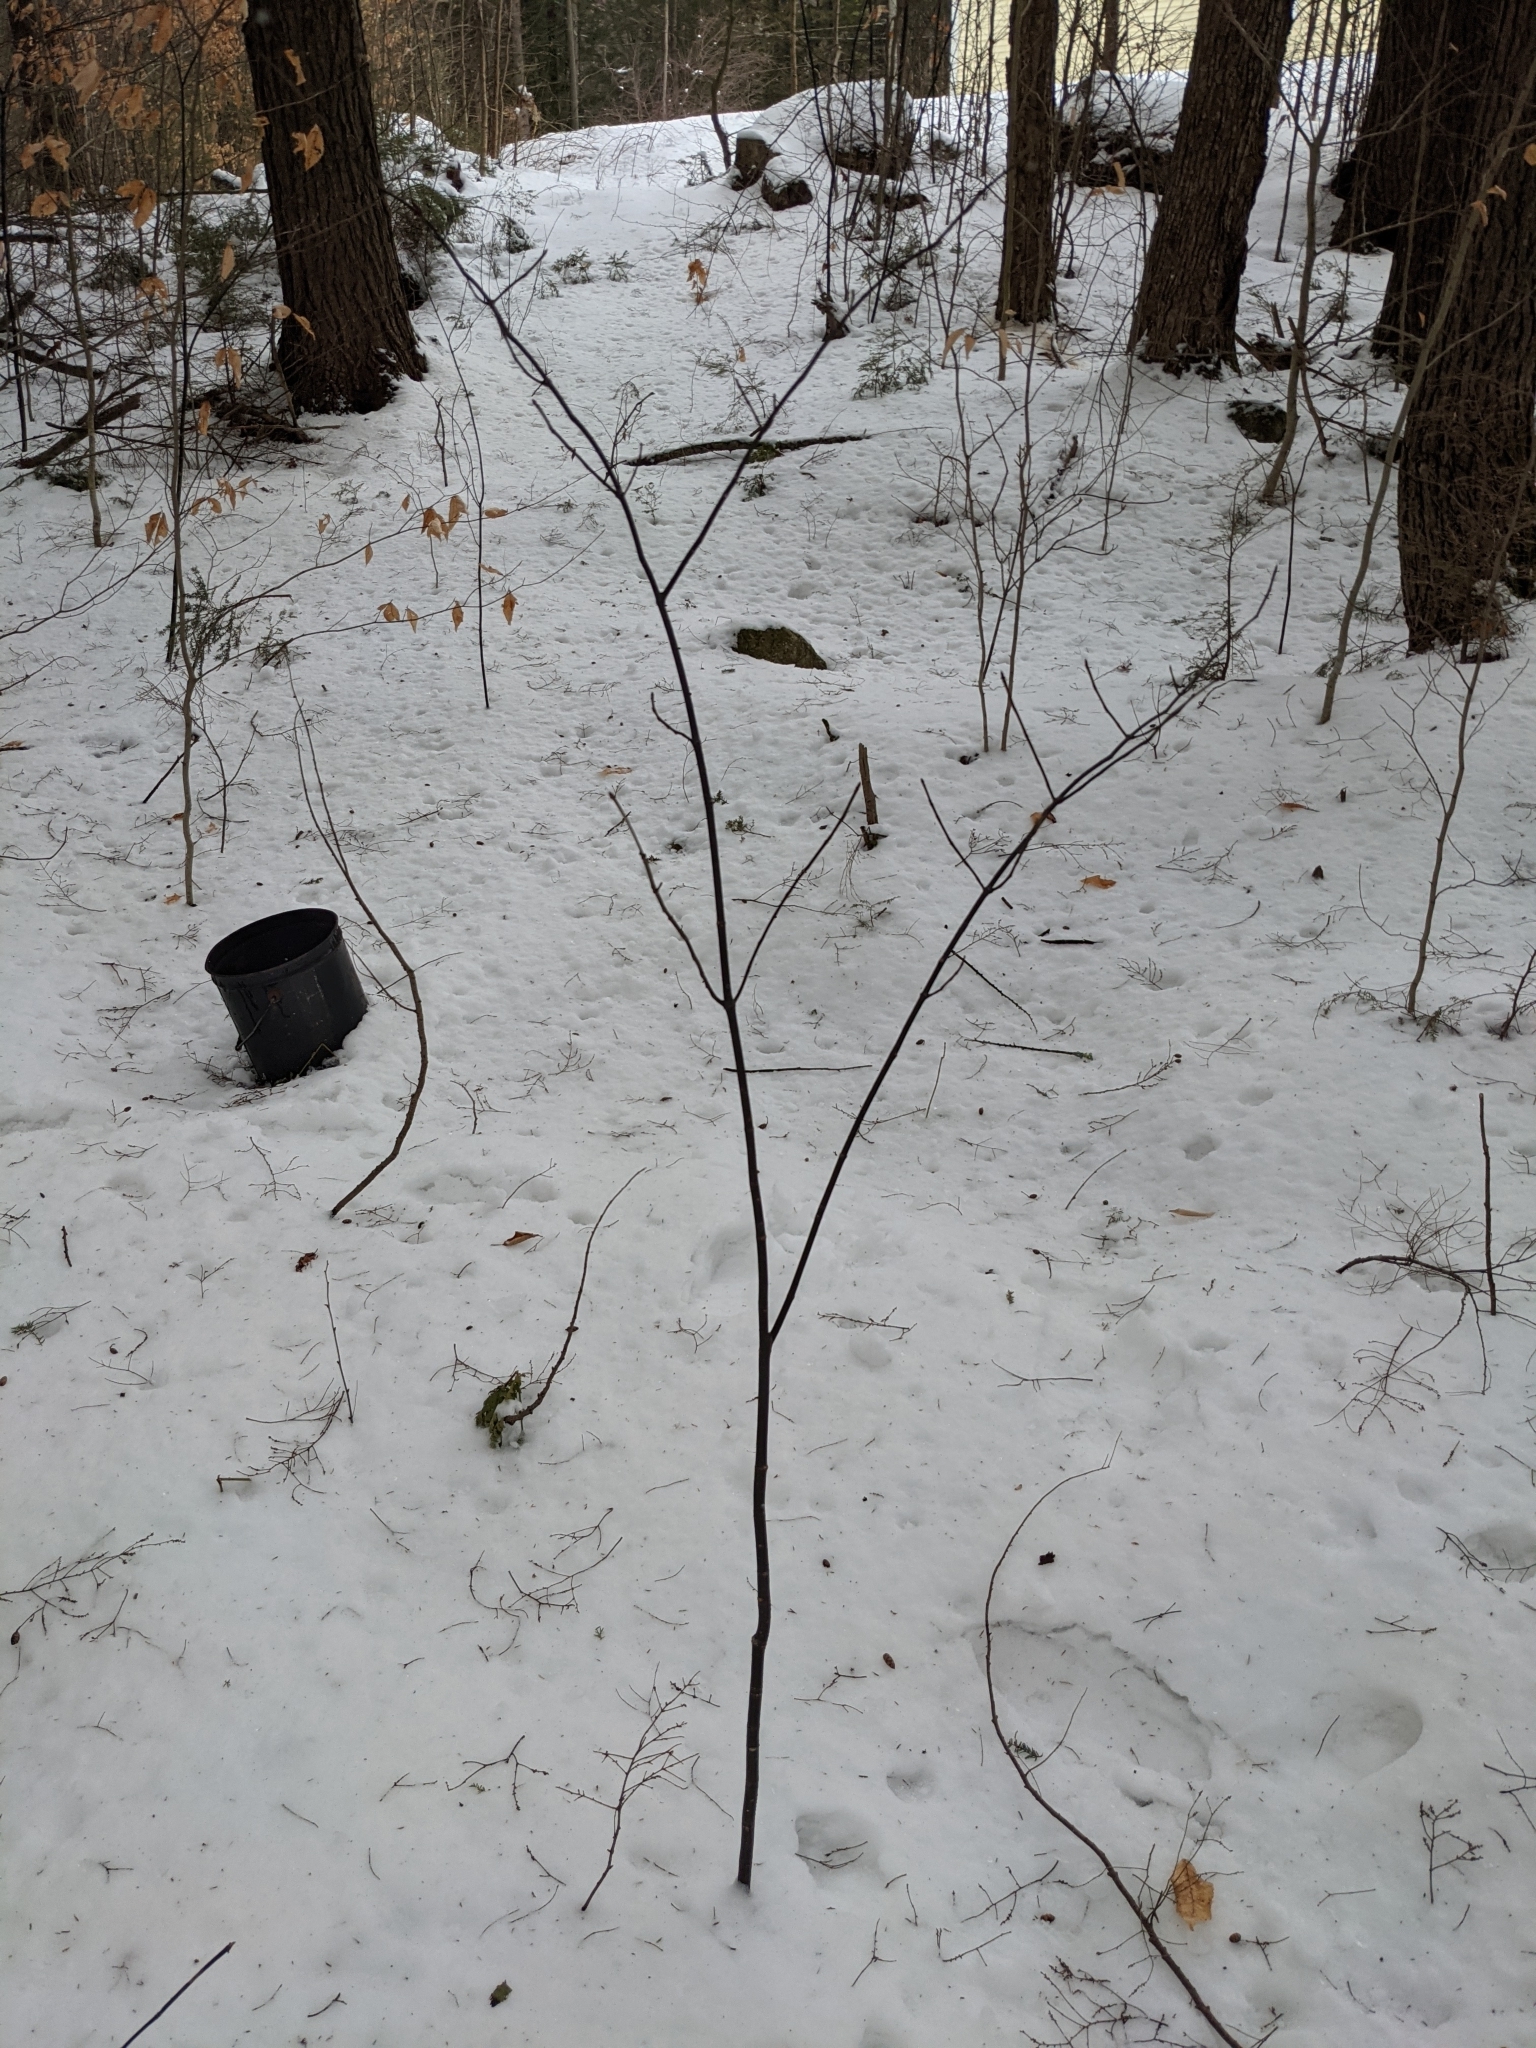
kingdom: Plantae
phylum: Tracheophyta
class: Magnoliopsida
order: Sapindales
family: Sapindaceae
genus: Acer
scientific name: Acer pensylvanicum
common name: Moosewood
